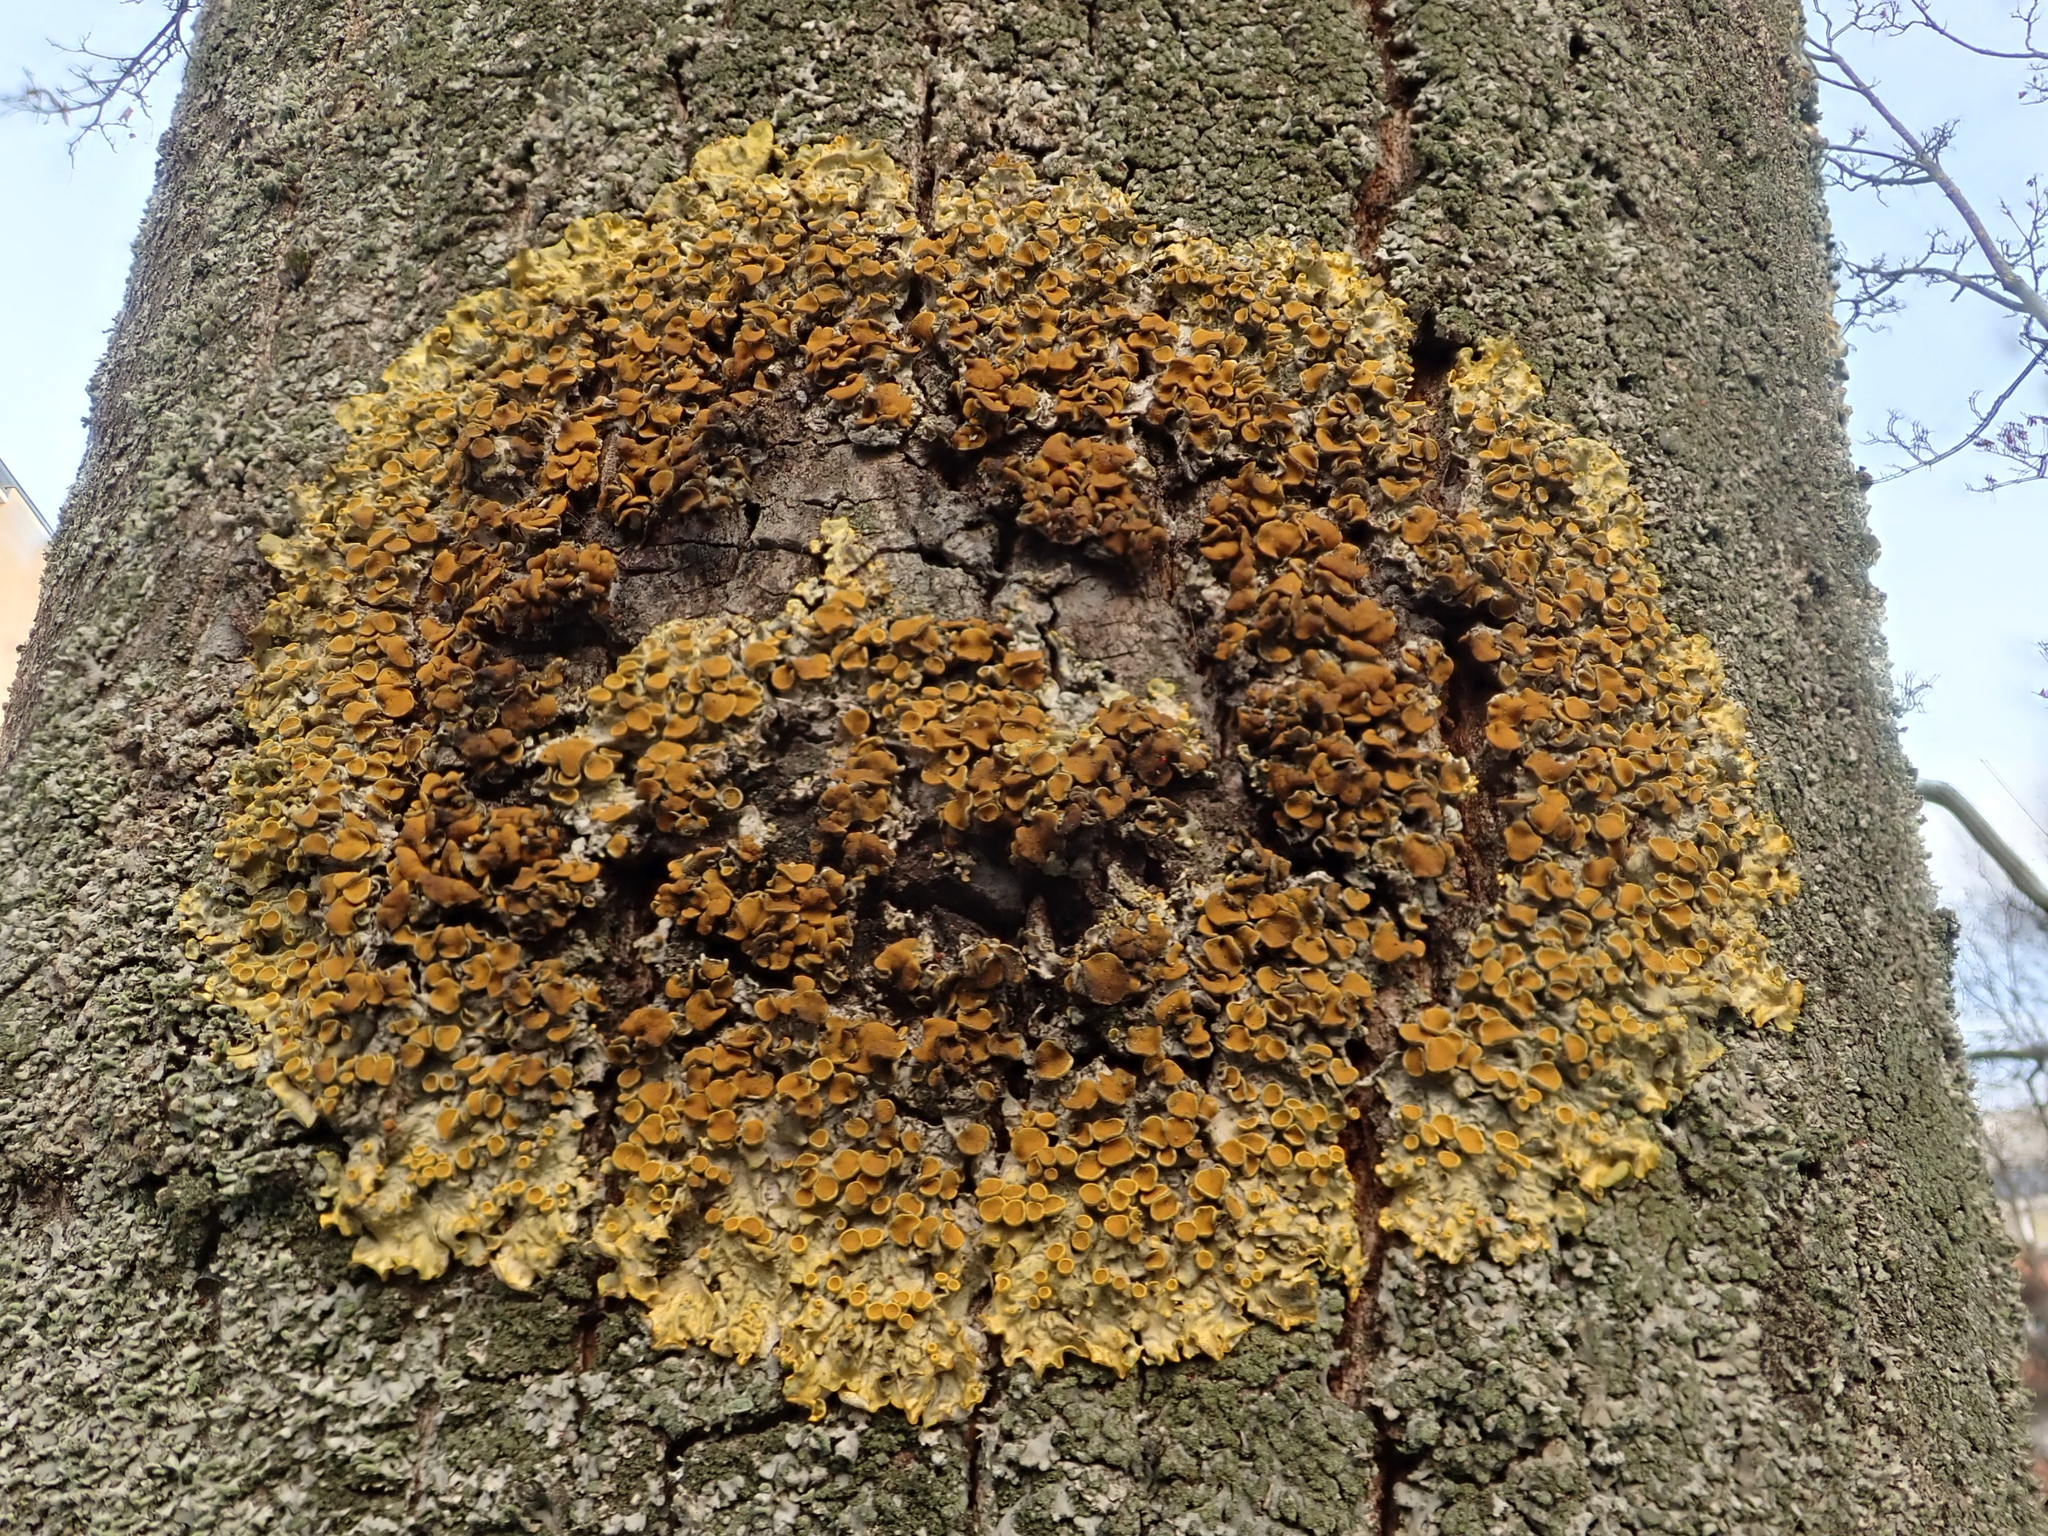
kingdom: Fungi
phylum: Ascomycota
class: Lecanoromycetes
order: Teloschistales
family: Teloschistaceae
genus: Xanthoria
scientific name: Xanthoria parietina
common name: Common orange lichen
